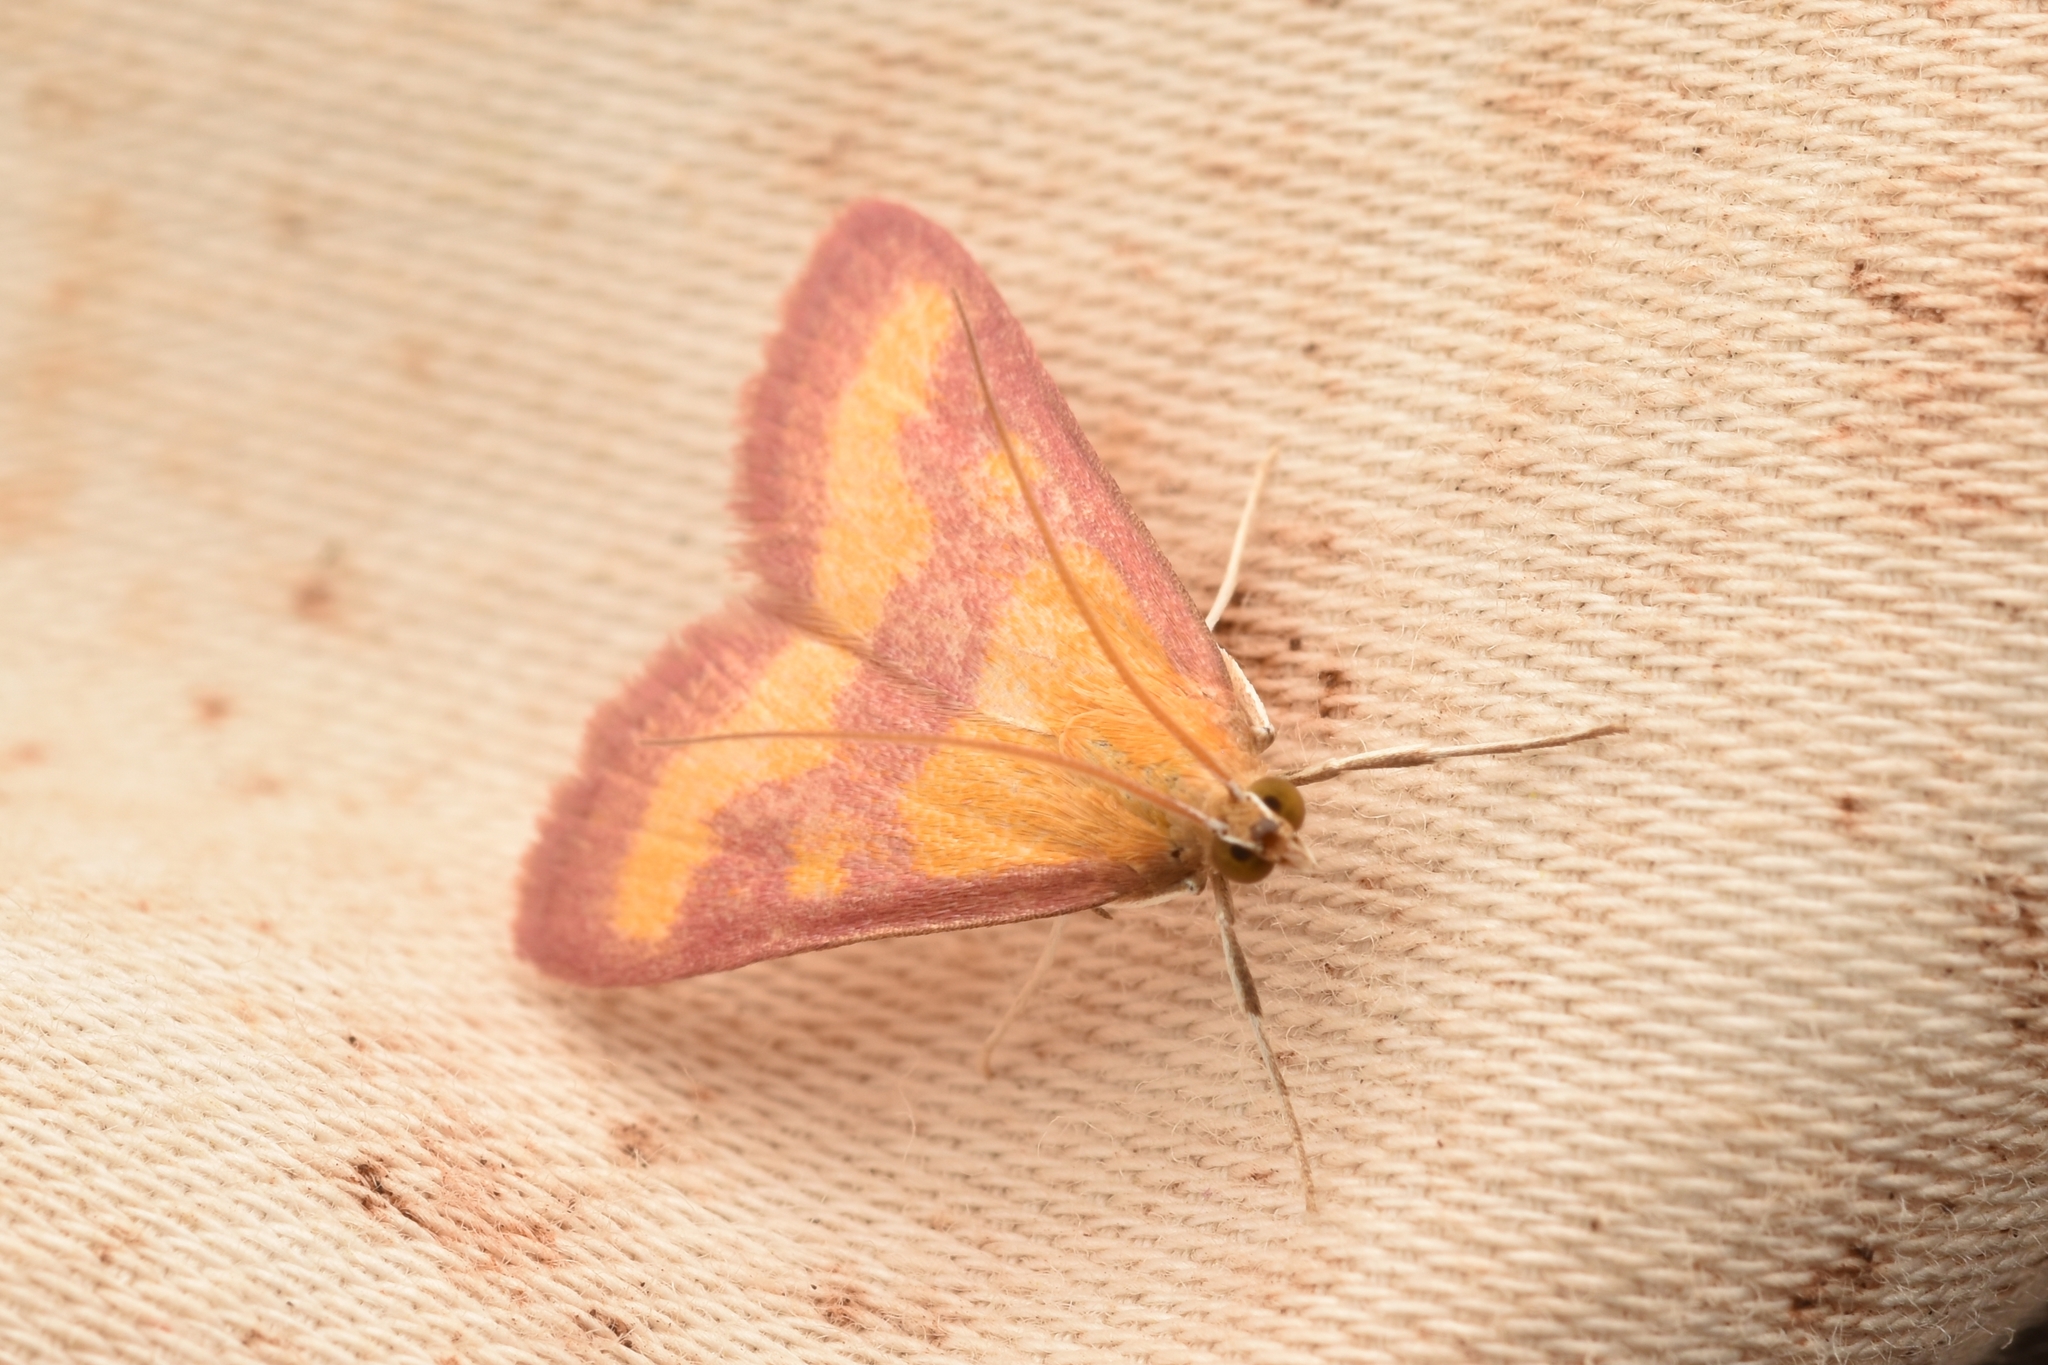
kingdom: Animalia
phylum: Arthropoda
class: Insecta
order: Lepidoptera
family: Crambidae
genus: Pyrausta
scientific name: Pyrausta laticlavia
